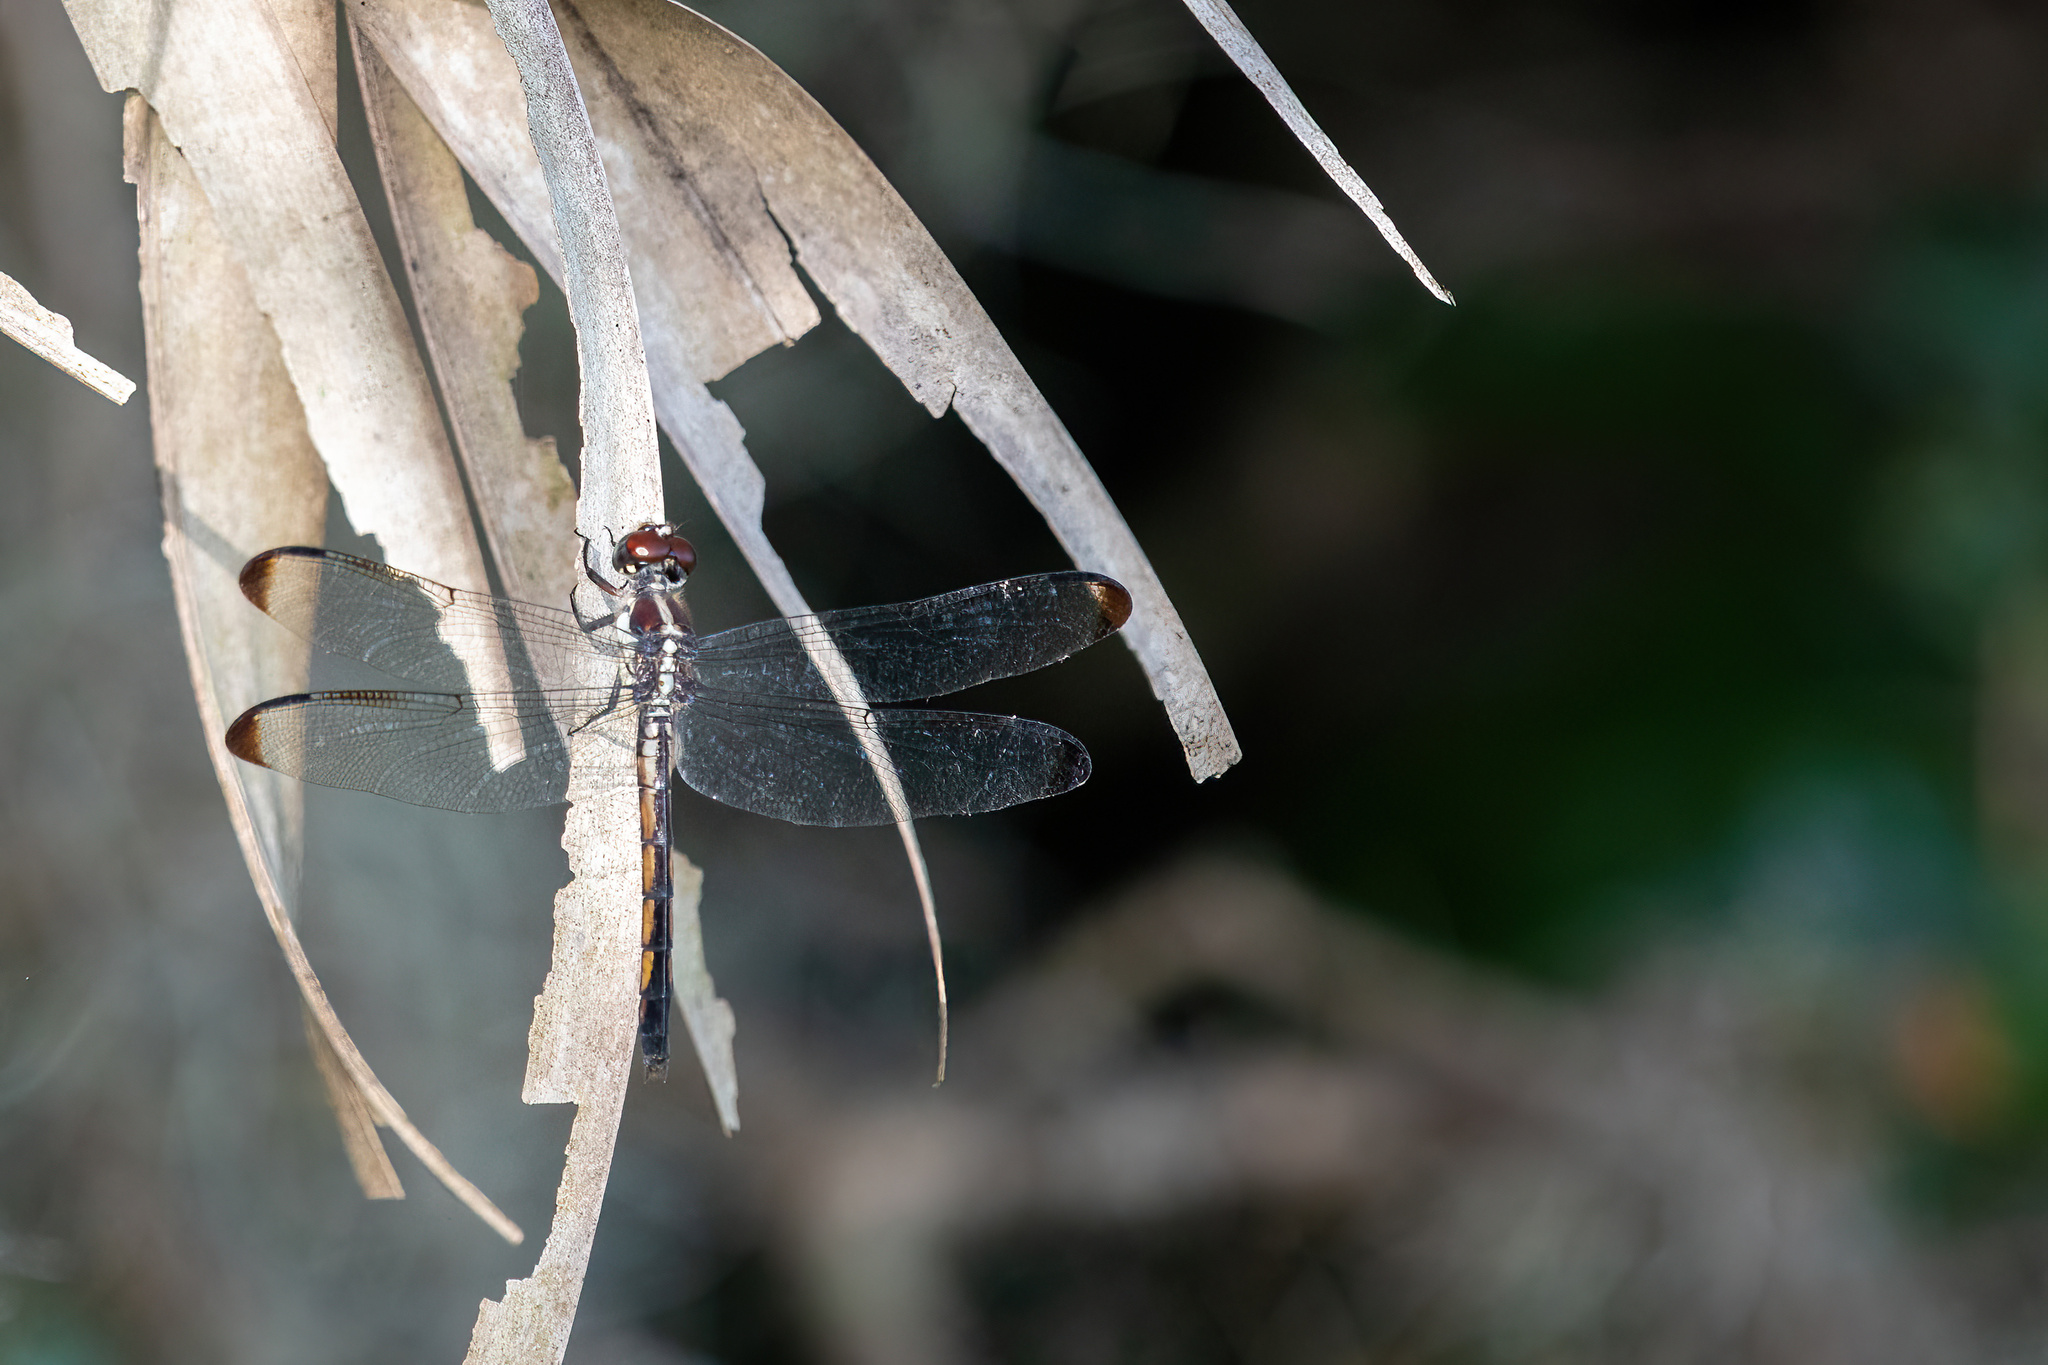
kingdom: Animalia
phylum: Arthropoda
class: Insecta
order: Odonata
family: Libellulidae
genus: Libellula
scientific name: Libellula incesta
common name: Slaty skimmer
